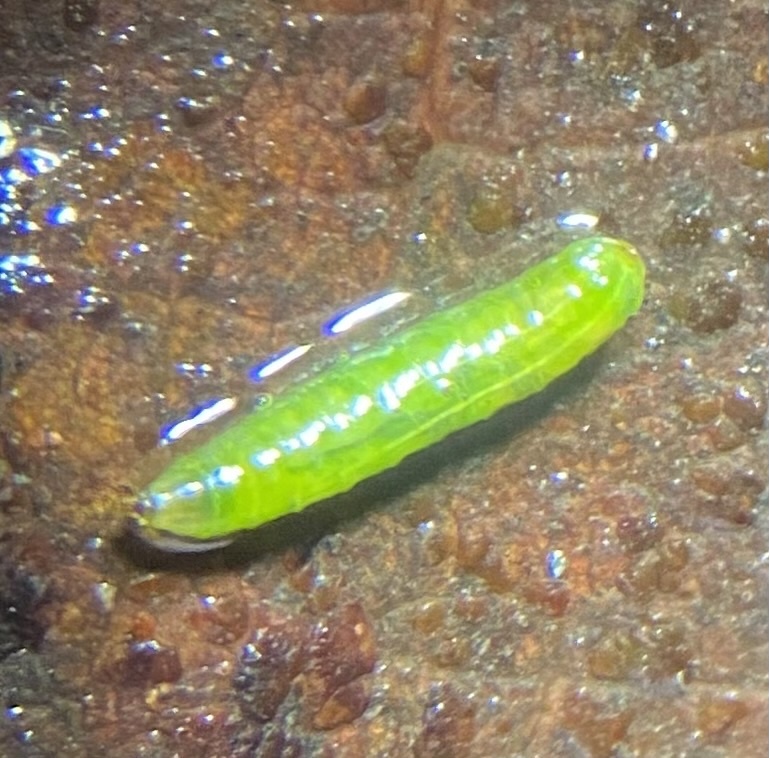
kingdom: Animalia
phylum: Arthropoda
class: Insecta
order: Diptera
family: Syrphidae
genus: Melanostoma
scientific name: Melanostoma
